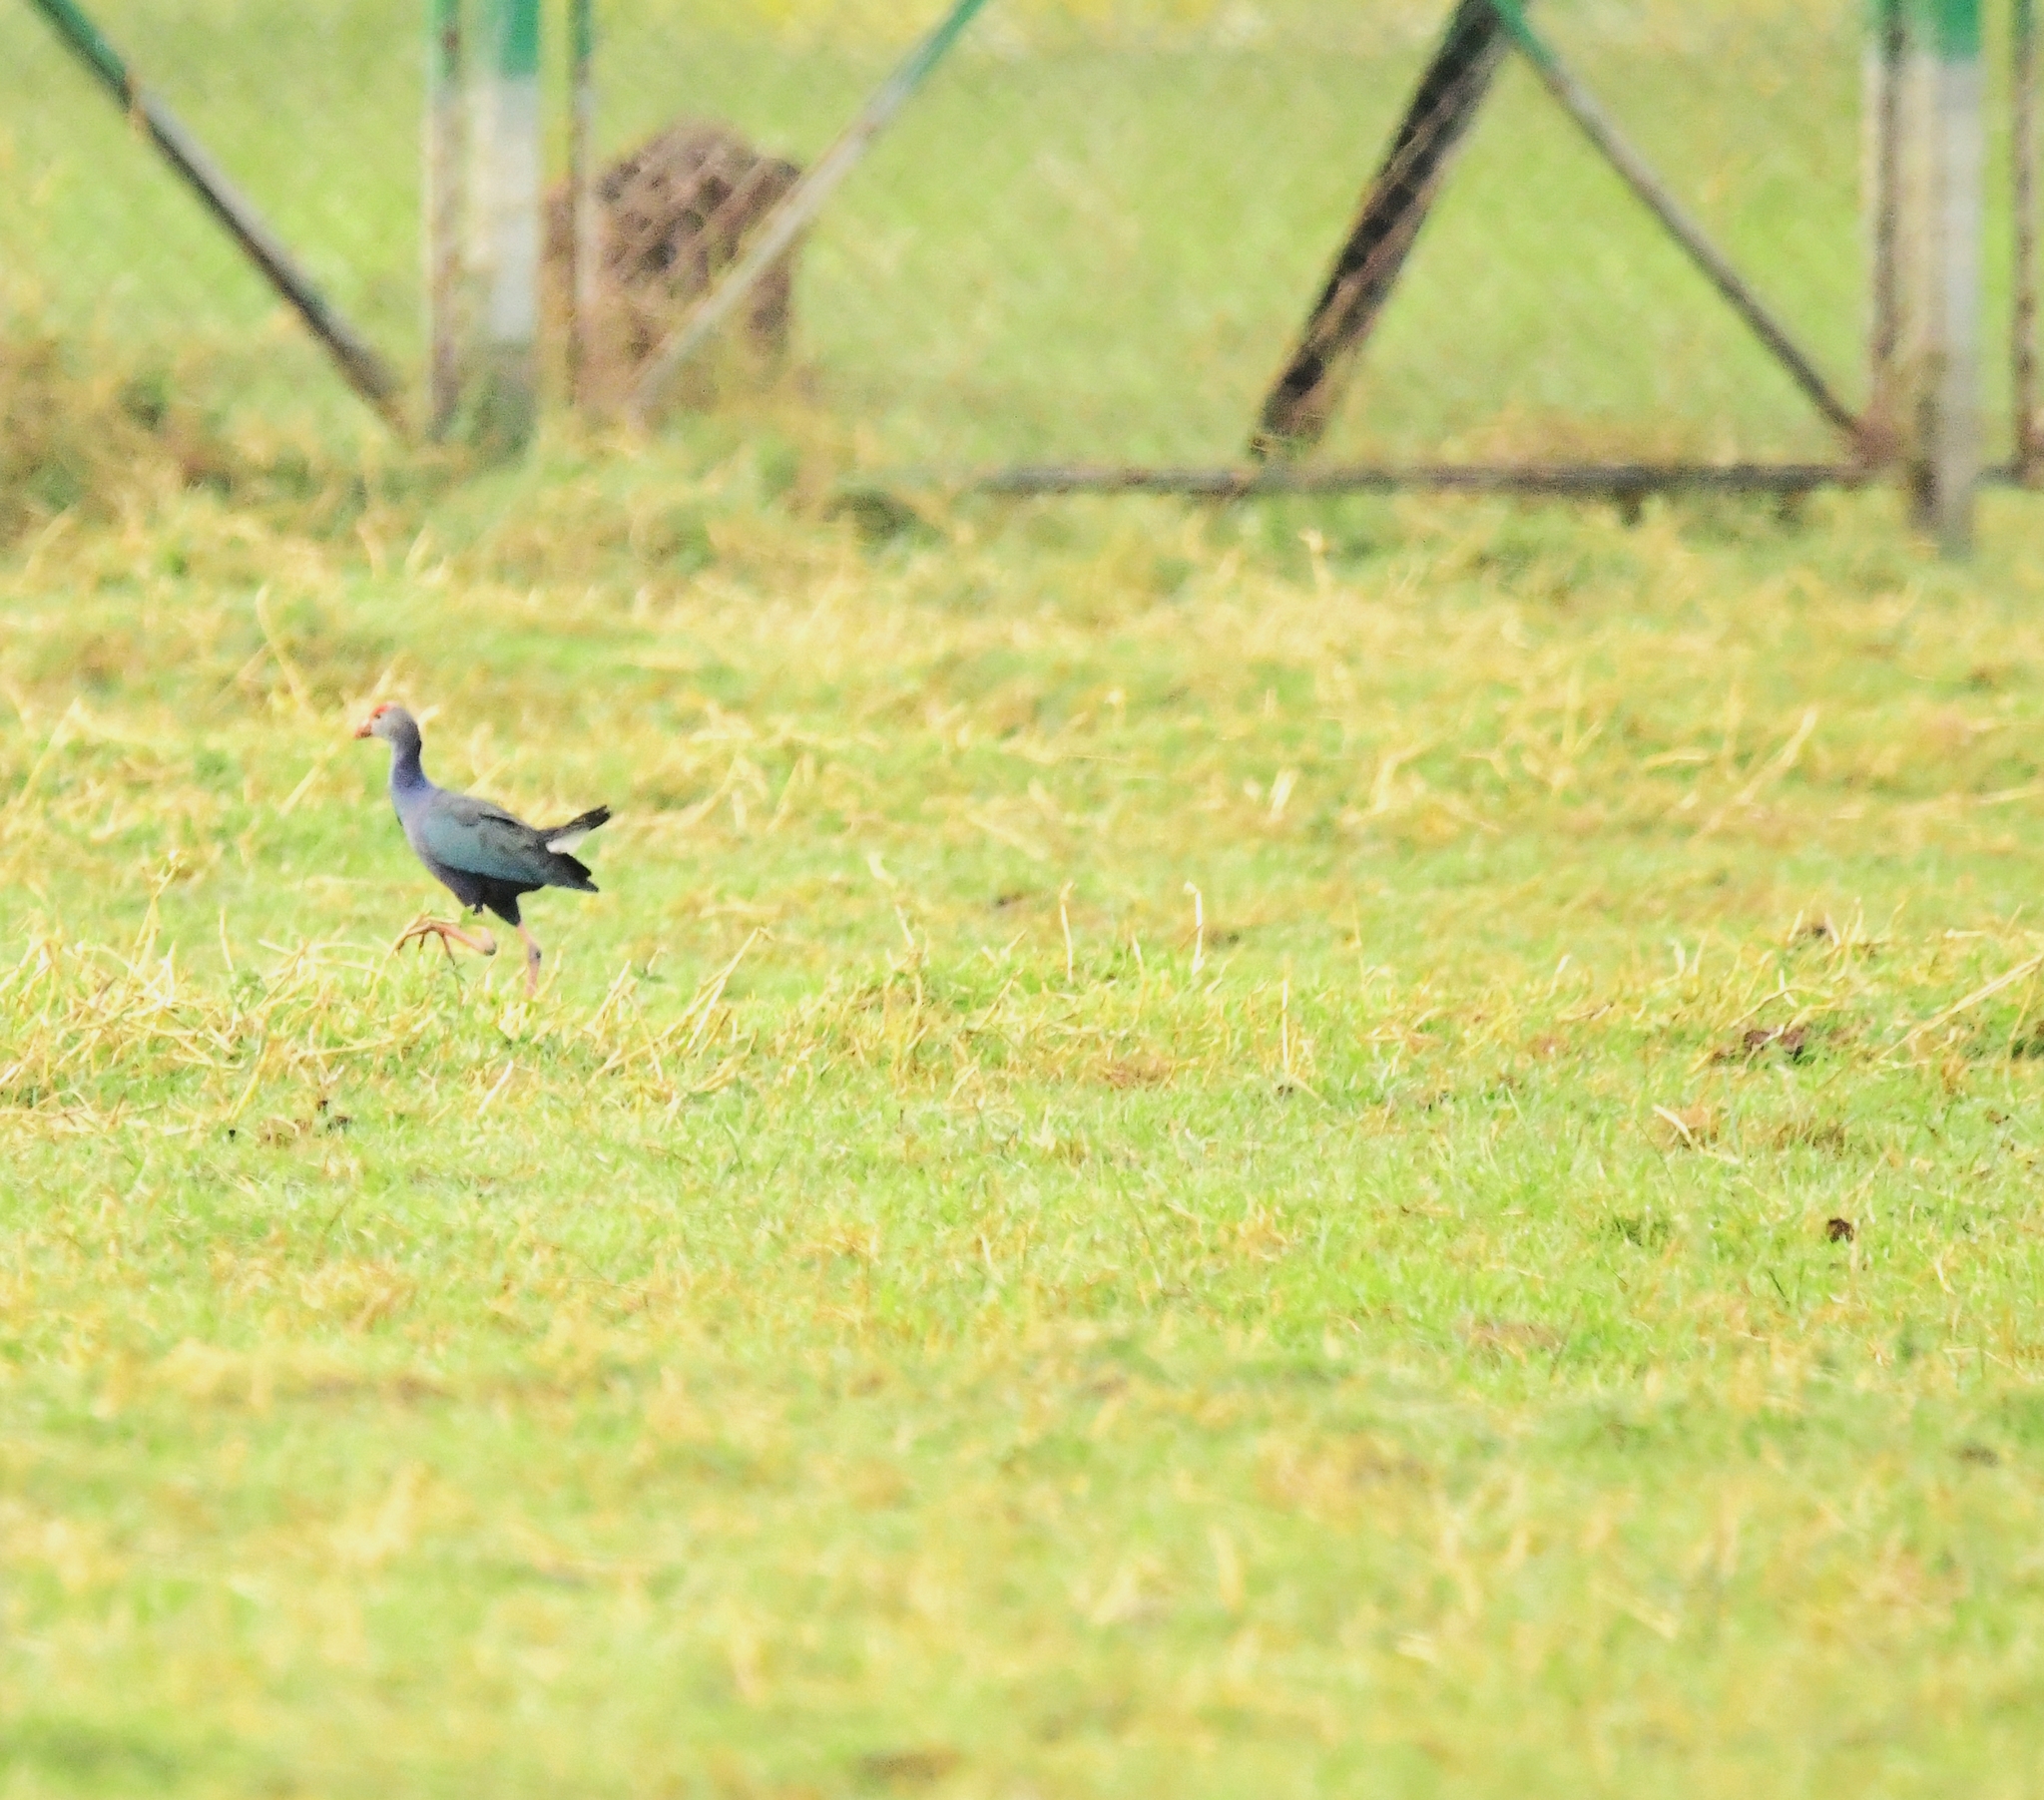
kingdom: Animalia
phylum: Chordata
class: Aves
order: Gruiformes
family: Rallidae
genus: Porphyrio
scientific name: Porphyrio porphyrio
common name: Purple swamphen
